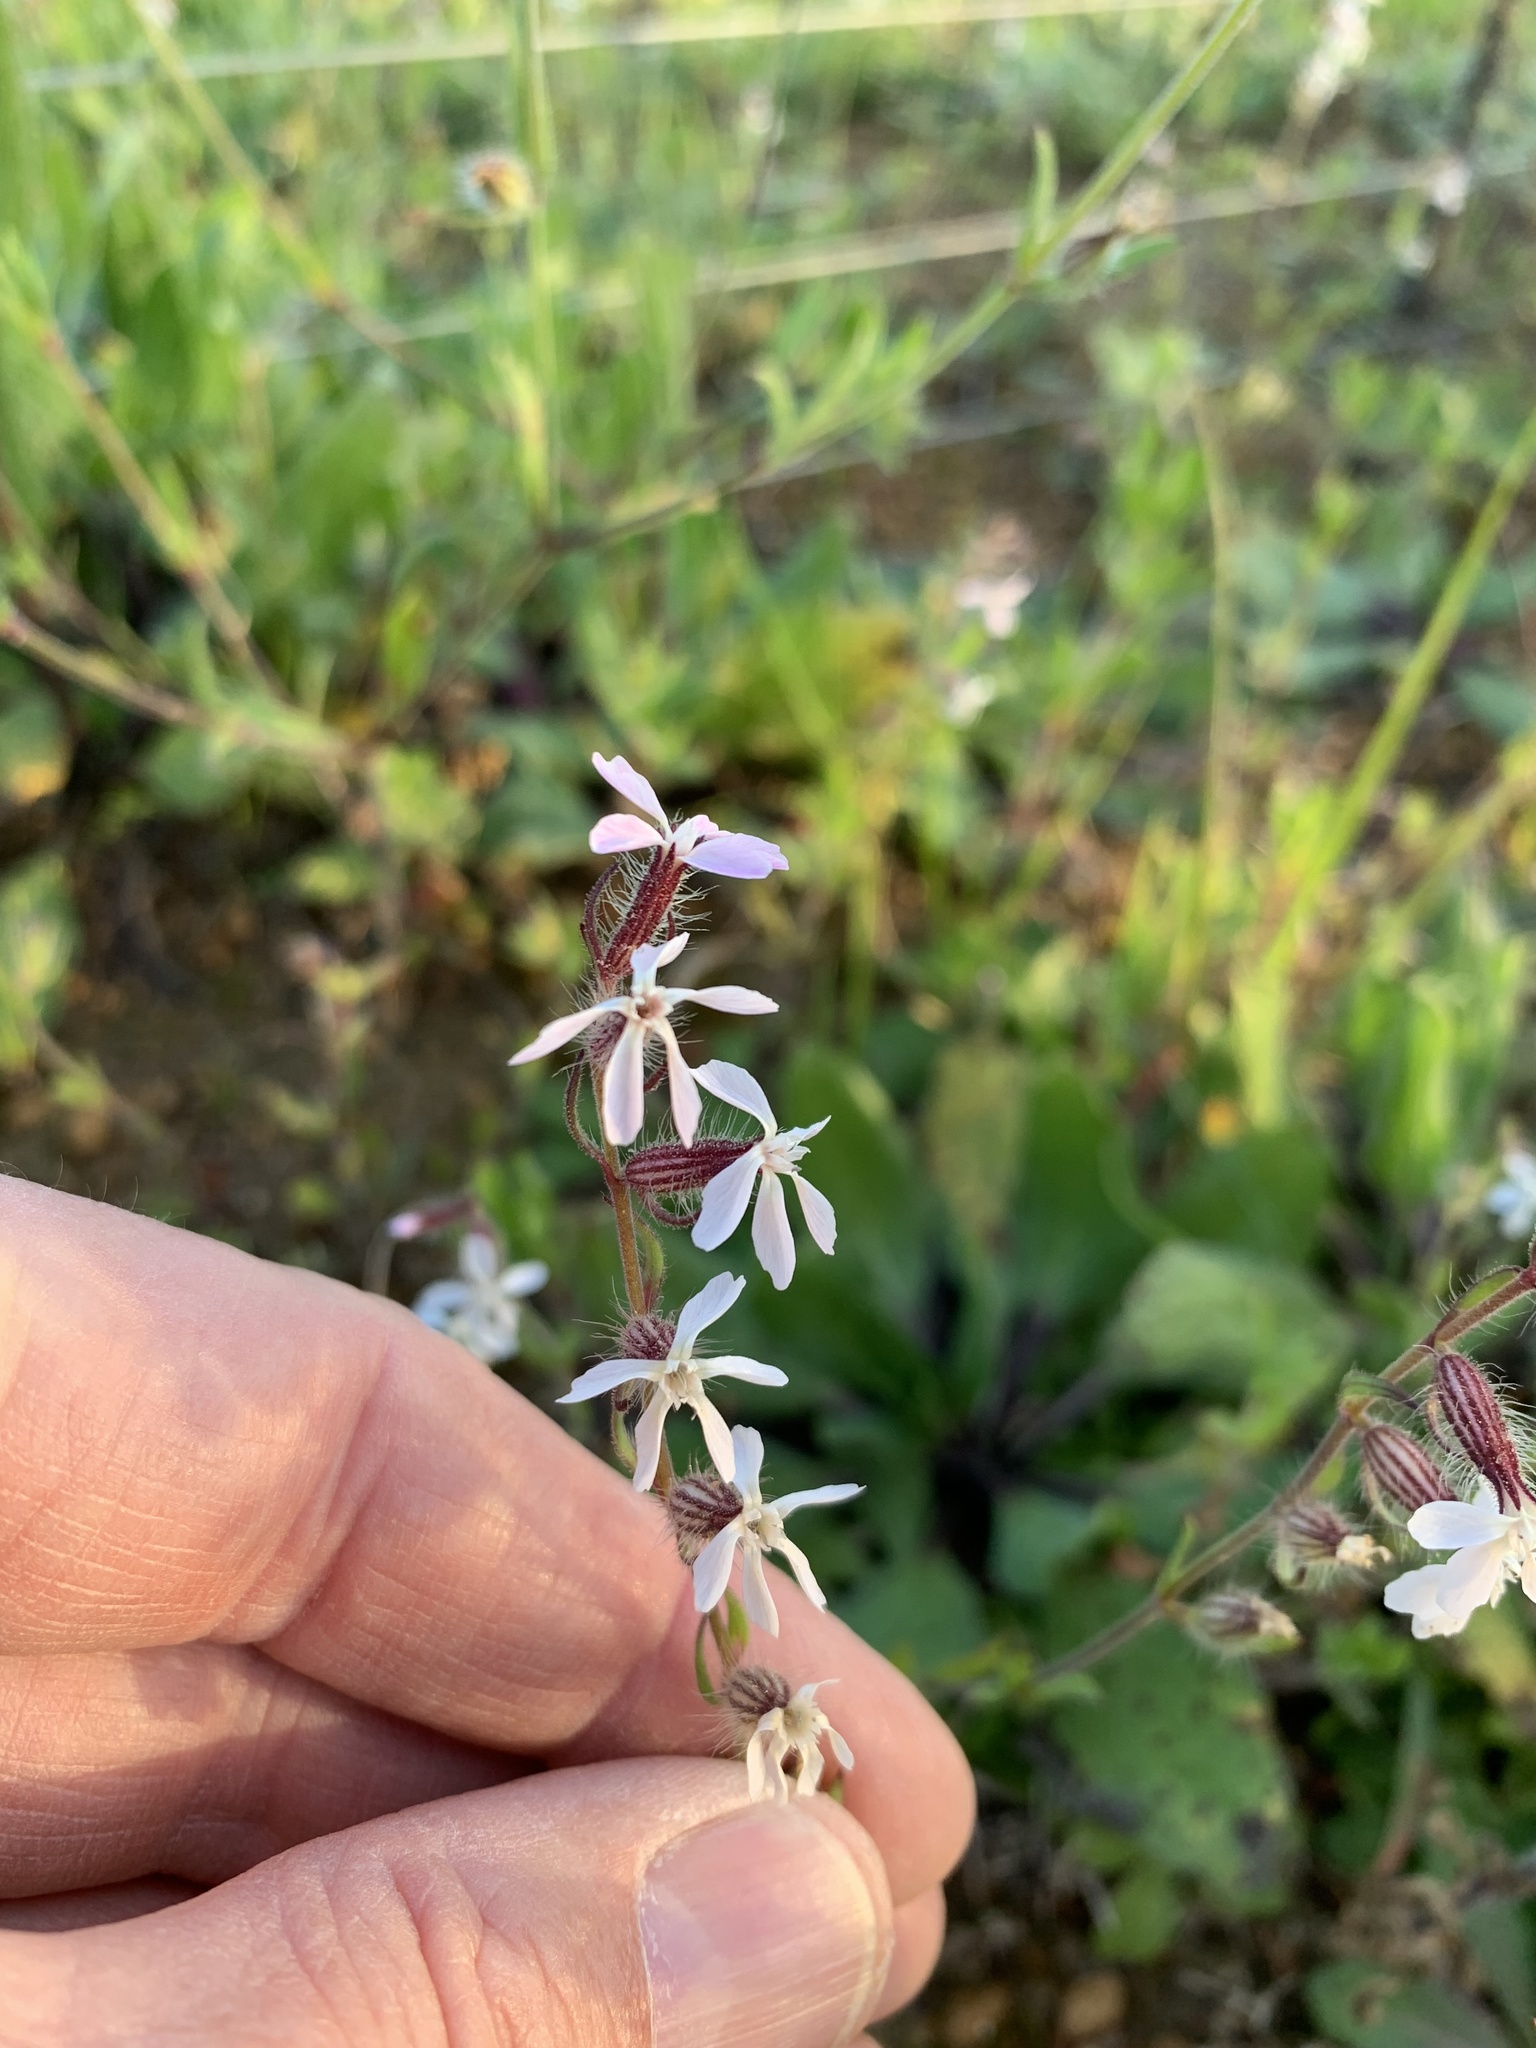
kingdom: Plantae
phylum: Tracheophyta
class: Magnoliopsida
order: Caryophyllales
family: Caryophyllaceae
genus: Silene
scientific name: Silene gallica
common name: Small-flowered catchfly
